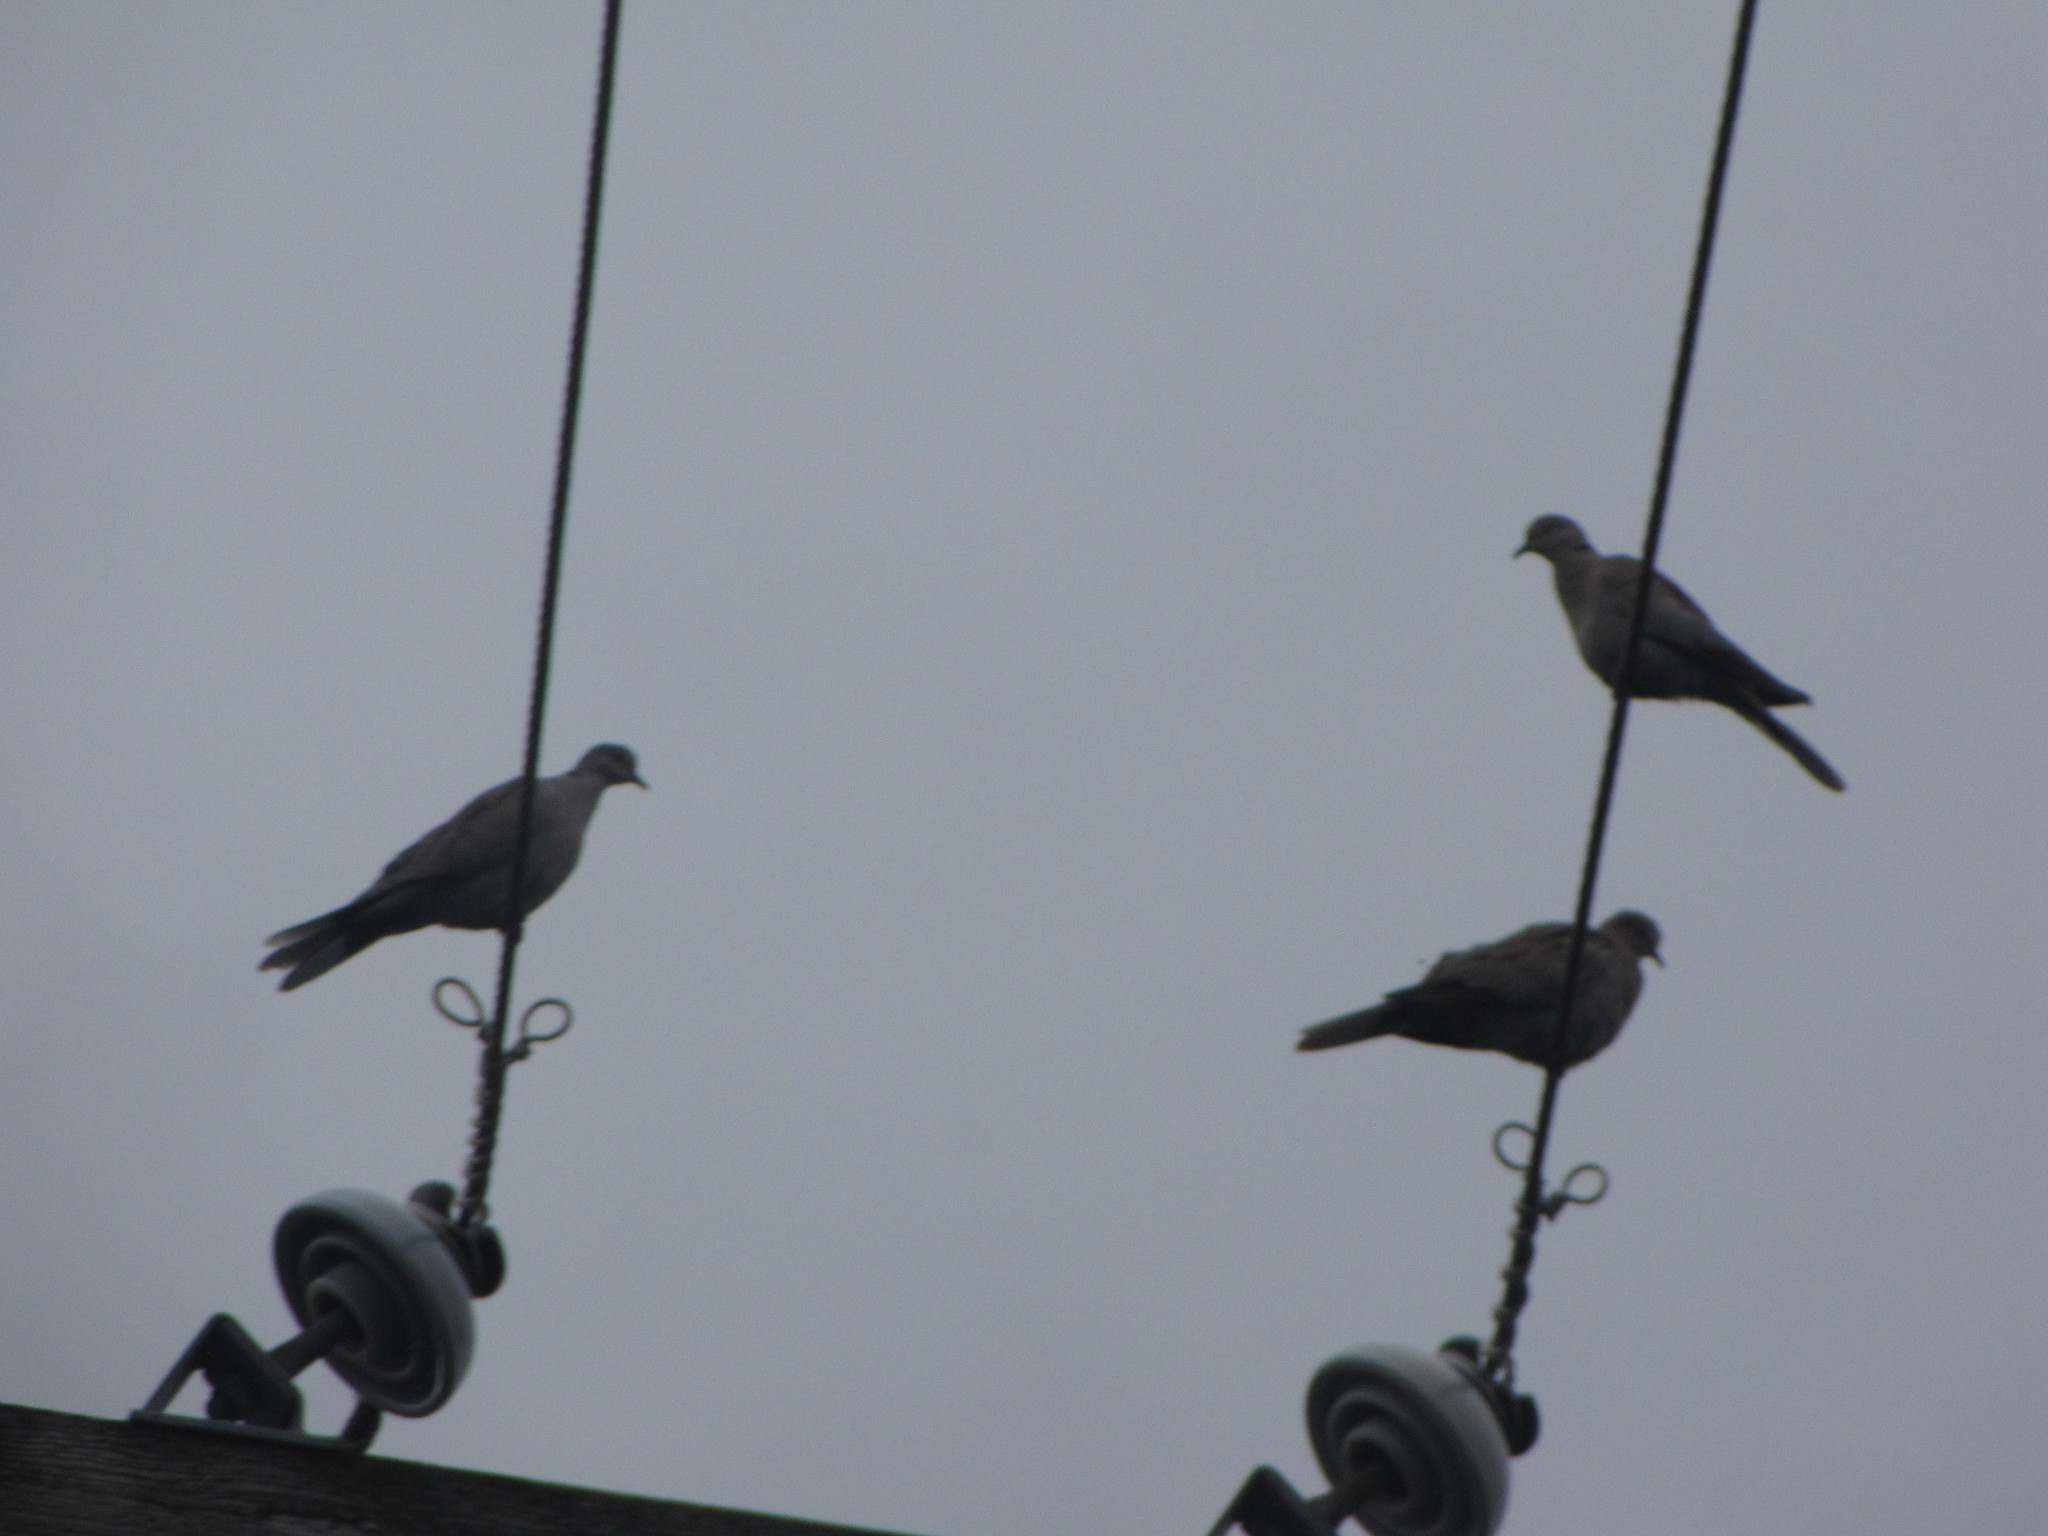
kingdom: Animalia
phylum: Chordata
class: Aves
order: Columbiformes
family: Columbidae
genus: Streptopelia
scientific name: Streptopelia decaocto
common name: Eurasian collared dove
